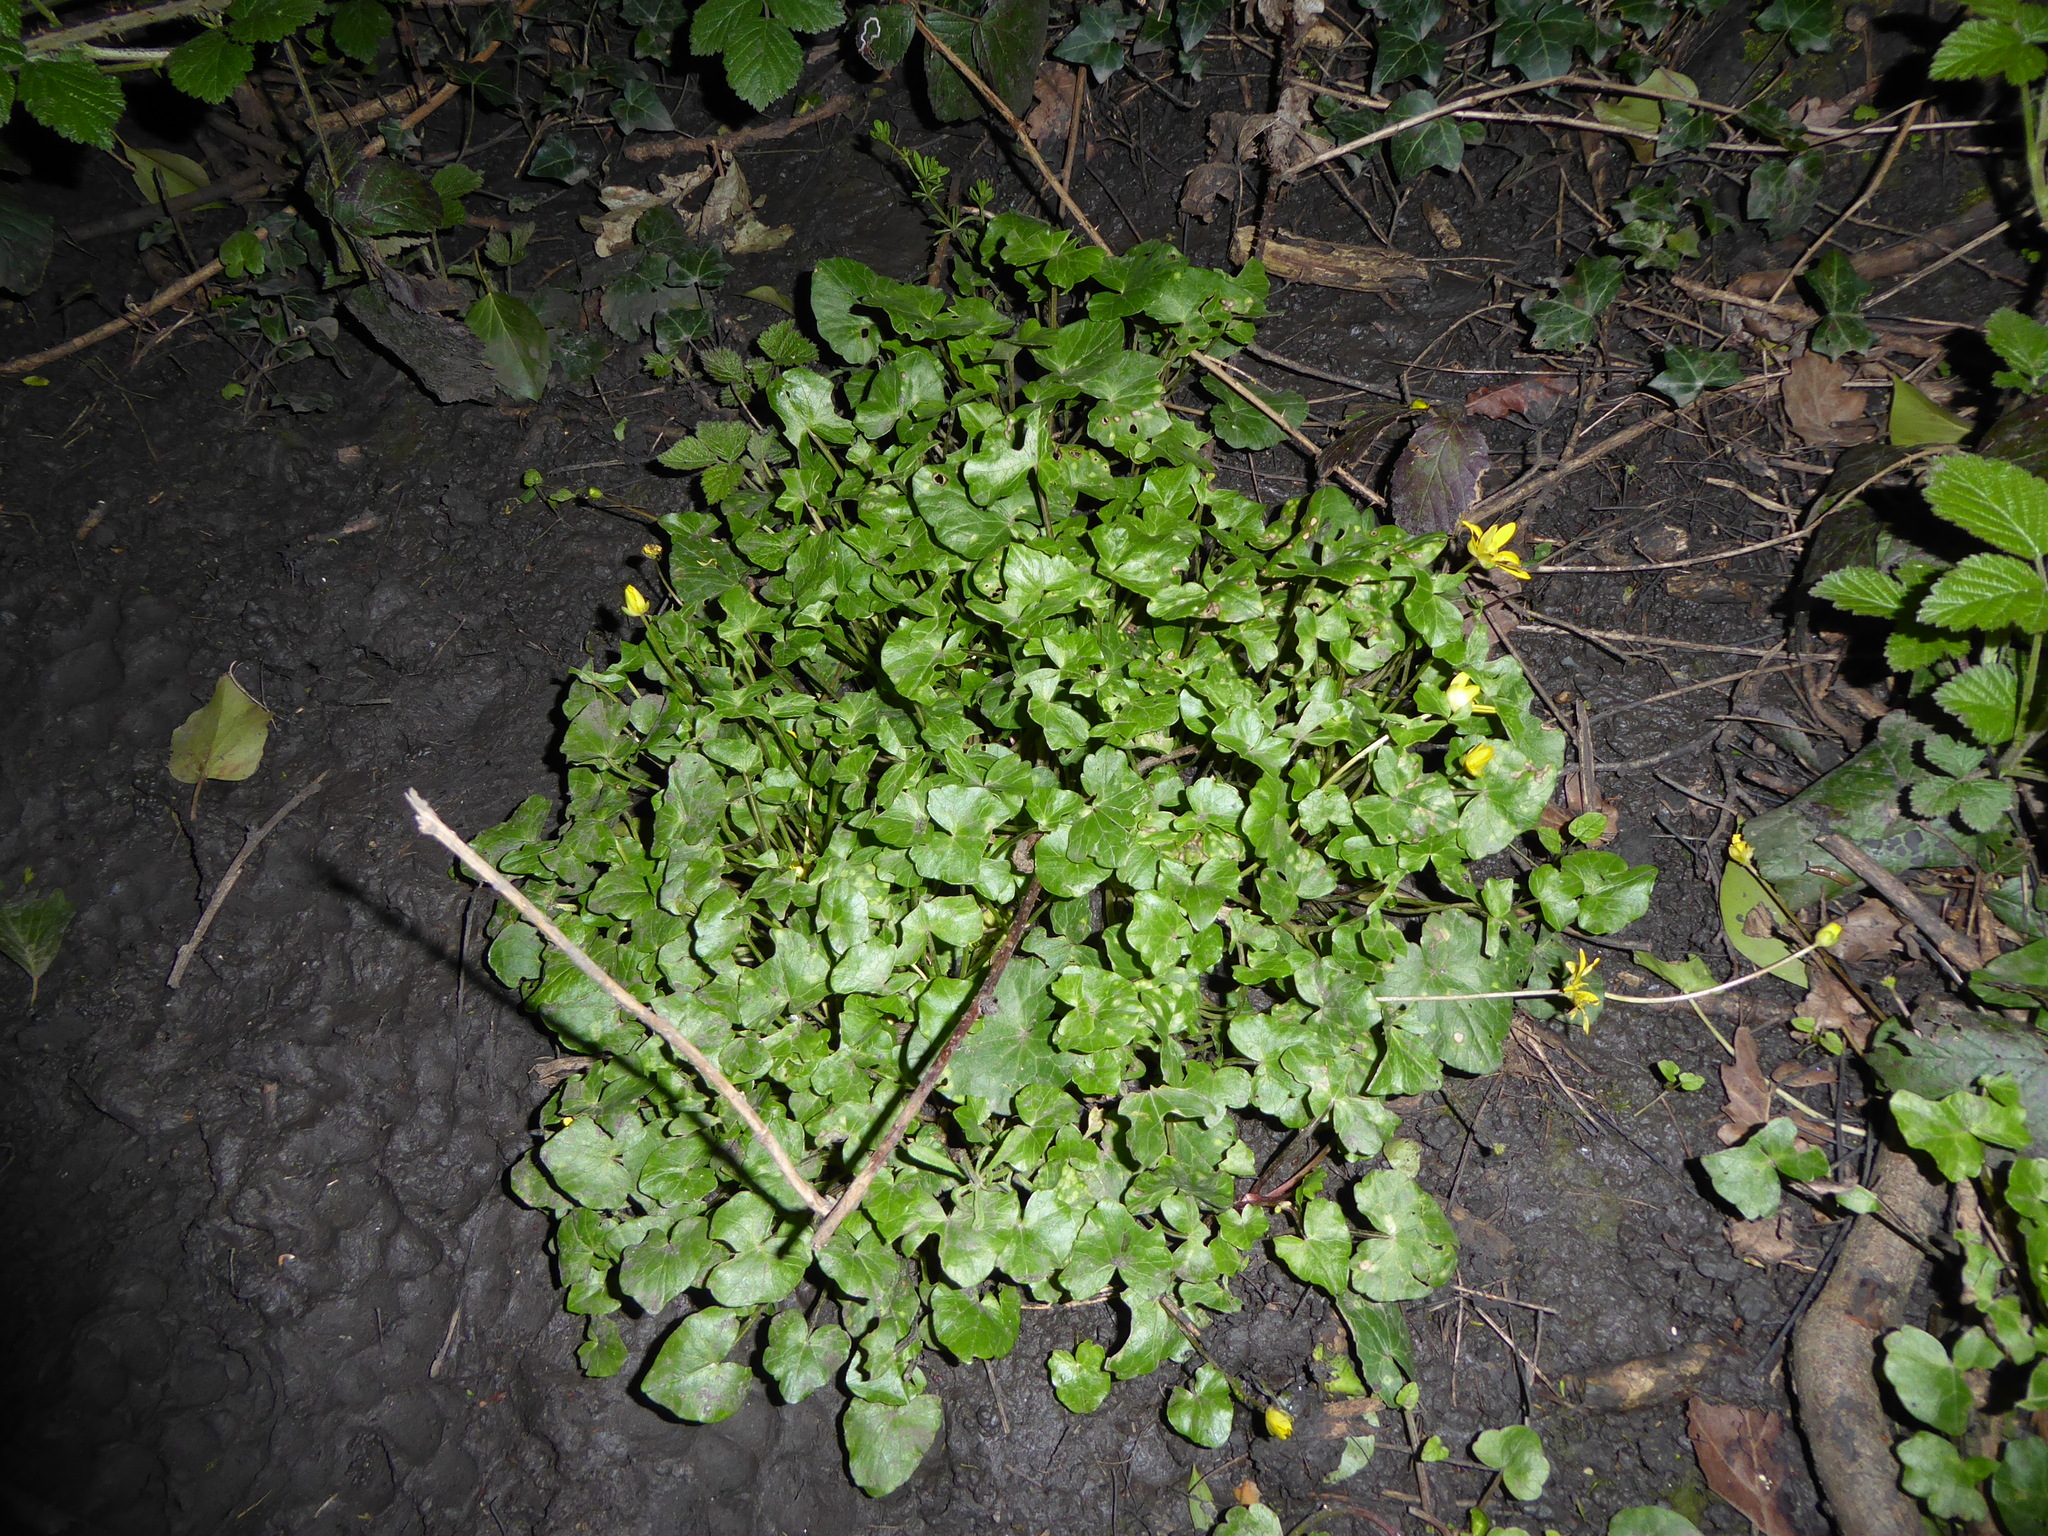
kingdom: Plantae
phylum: Tracheophyta
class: Magnoliopsida
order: Ranunculales
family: Ranunculaceae
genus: Ficaria
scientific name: Ficaria verna
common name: Lesser celandine
